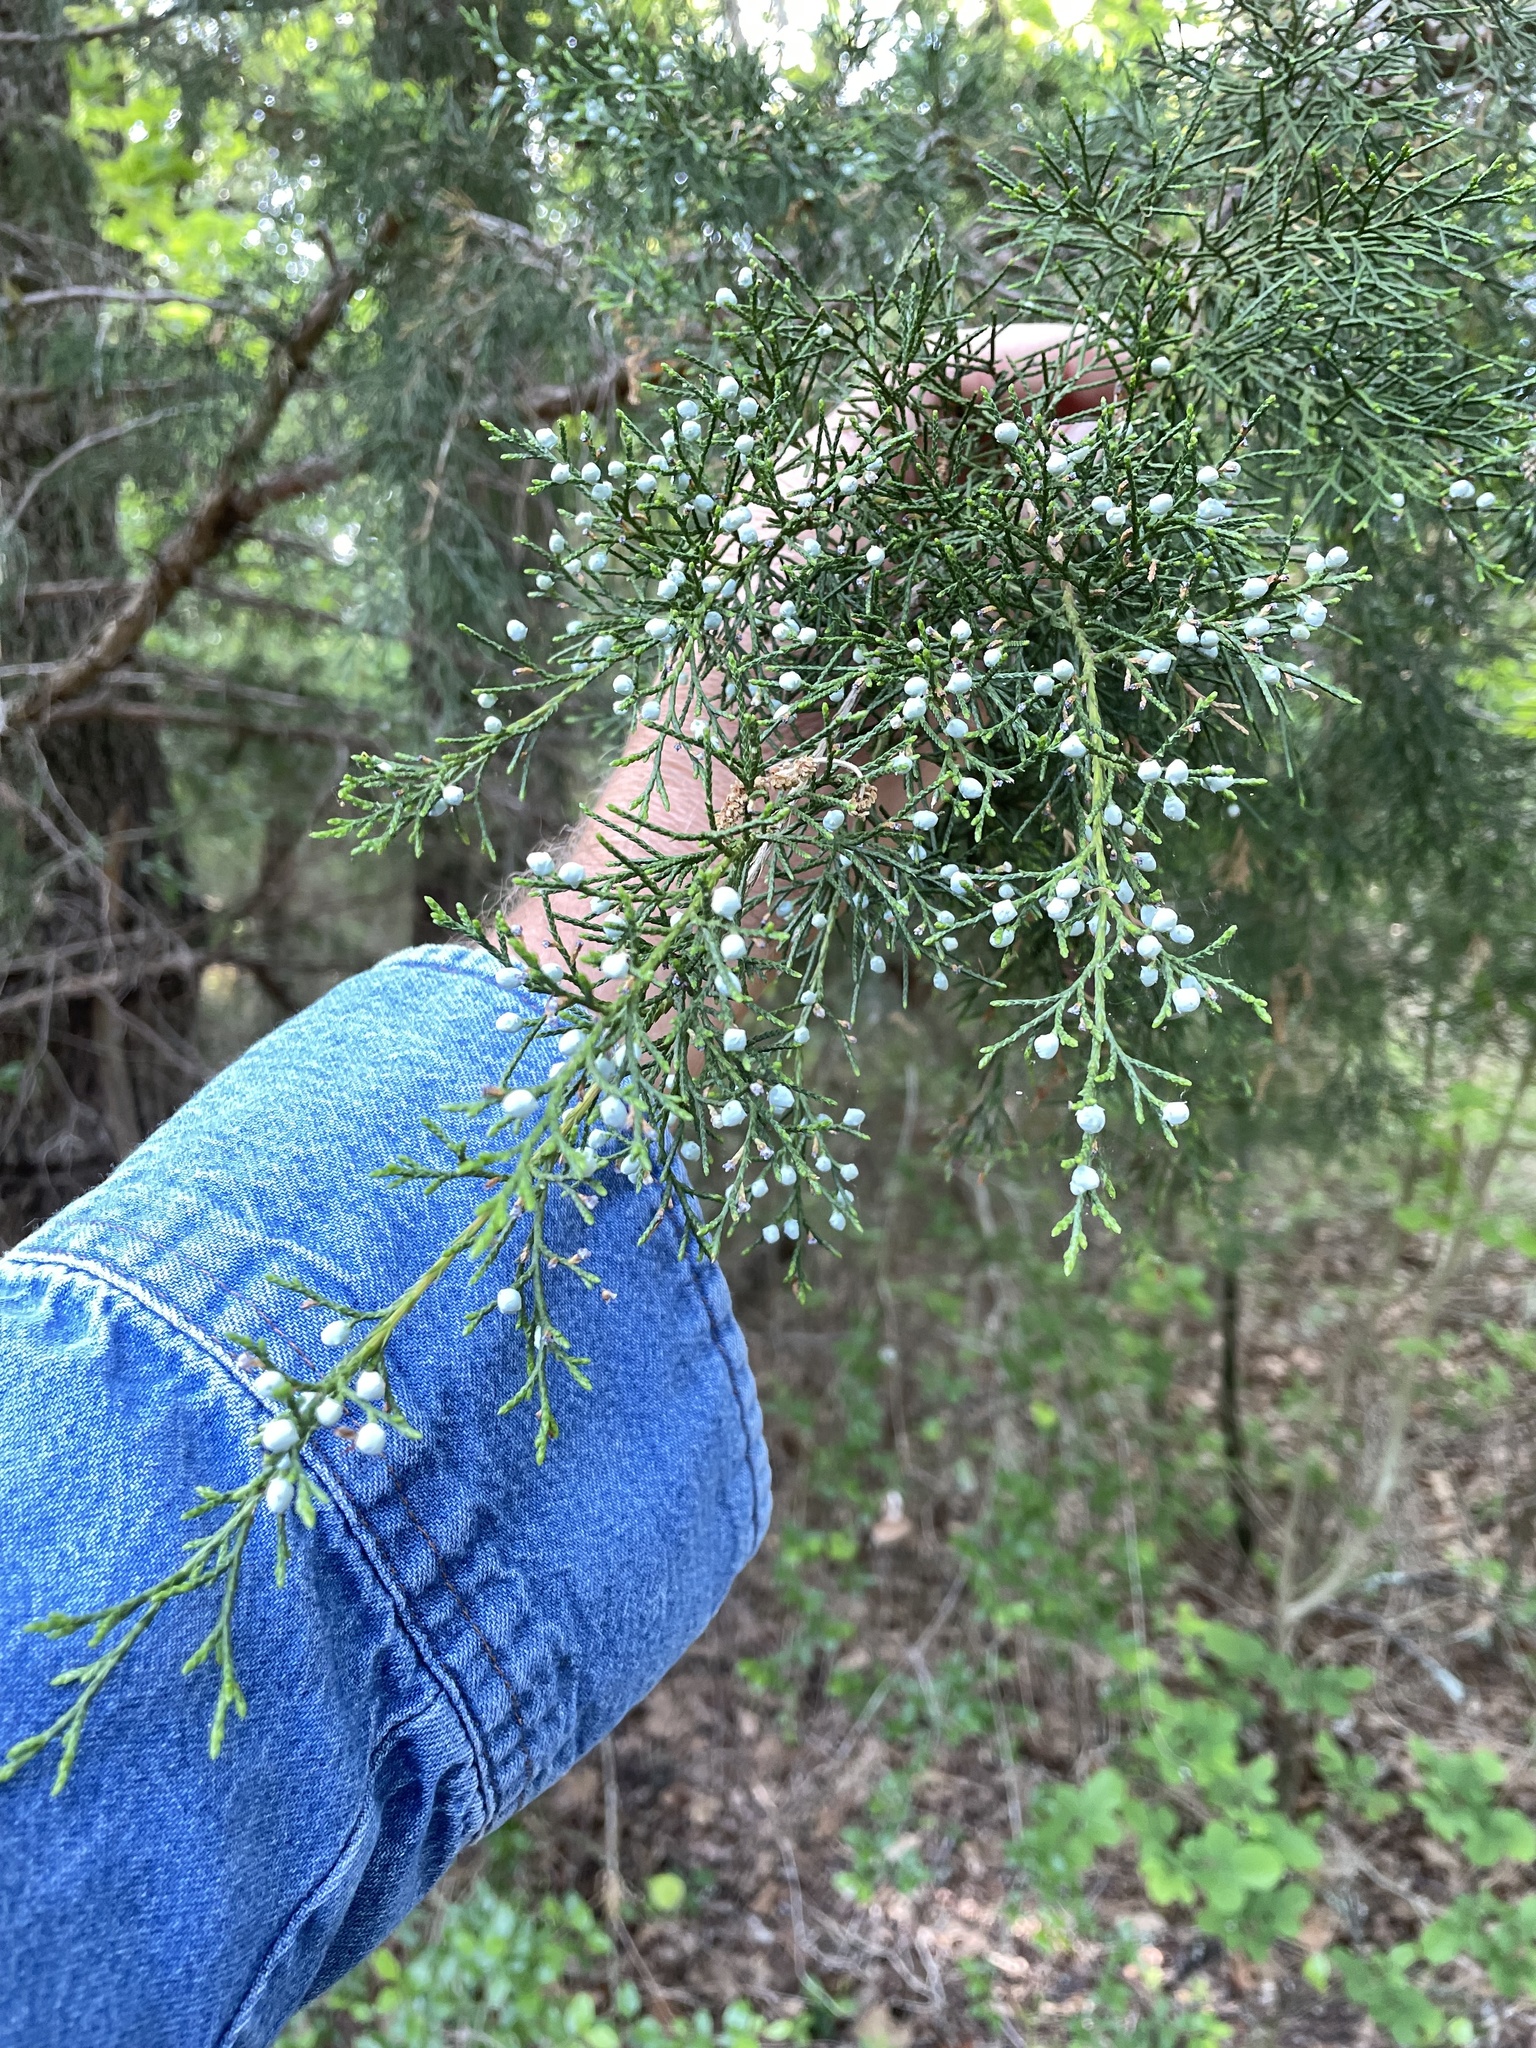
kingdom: Plantae
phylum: Tracheophyta
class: Pinopsida
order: Pinales
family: Cupressaceae
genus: Juniperus
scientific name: Juniperus virginiana
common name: Red juniper
